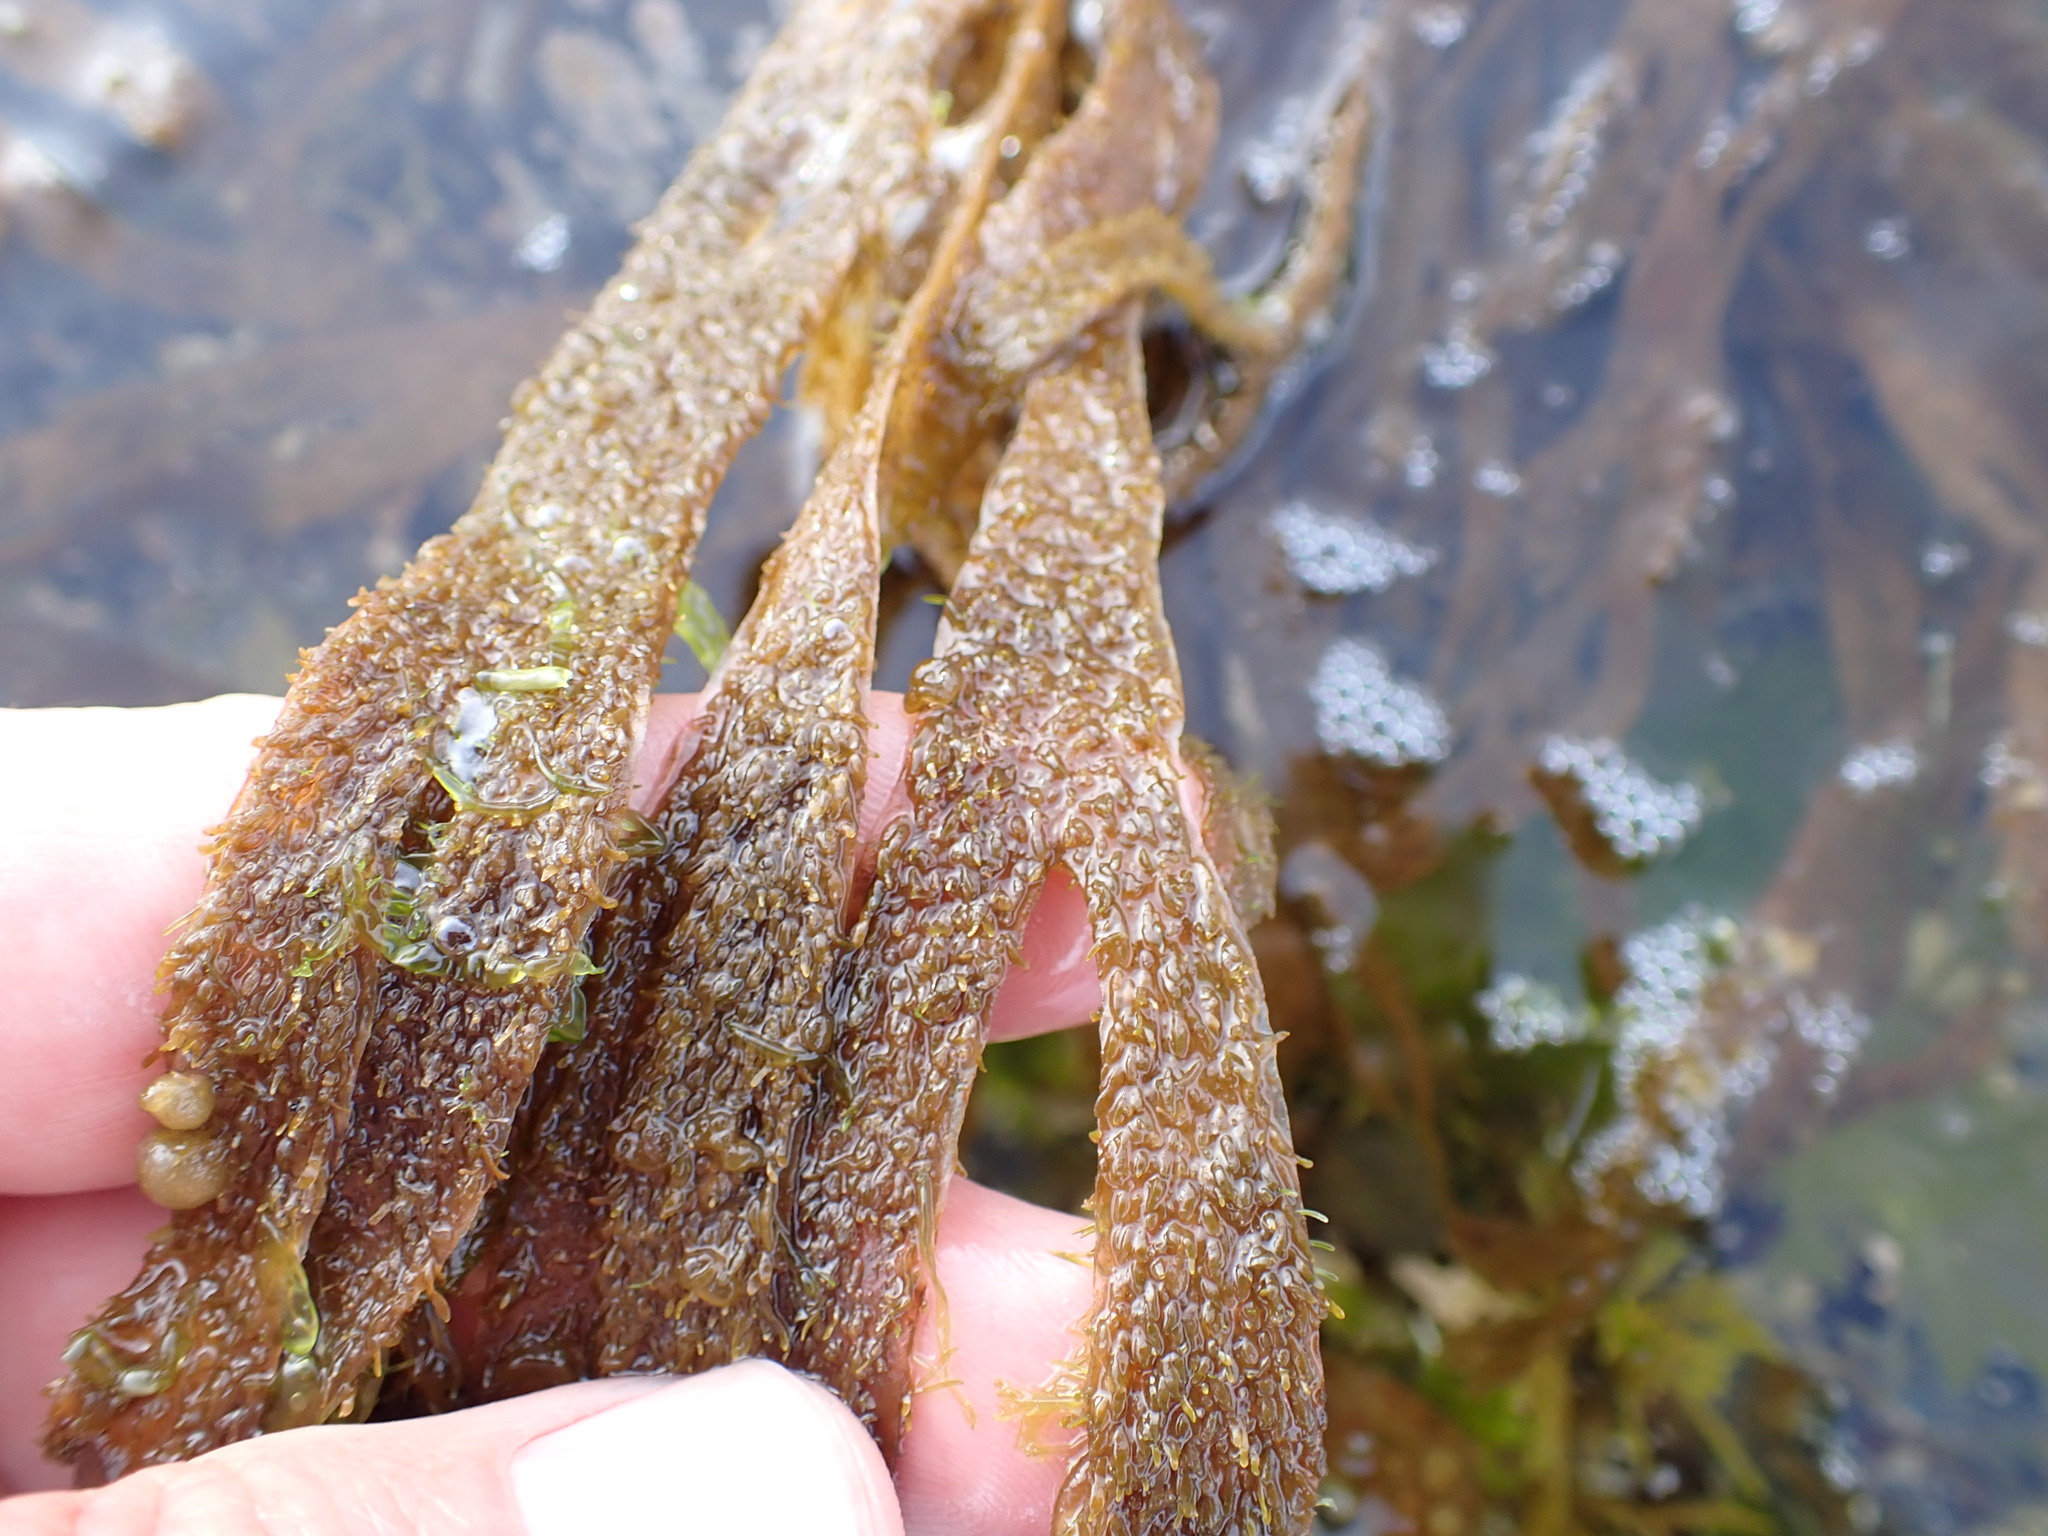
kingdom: Chromista
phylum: Ochrophyta
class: Phaeophyceae
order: Dictyotales
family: Dictyotaceae
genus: Dictyota
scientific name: Dictyota kunthii
